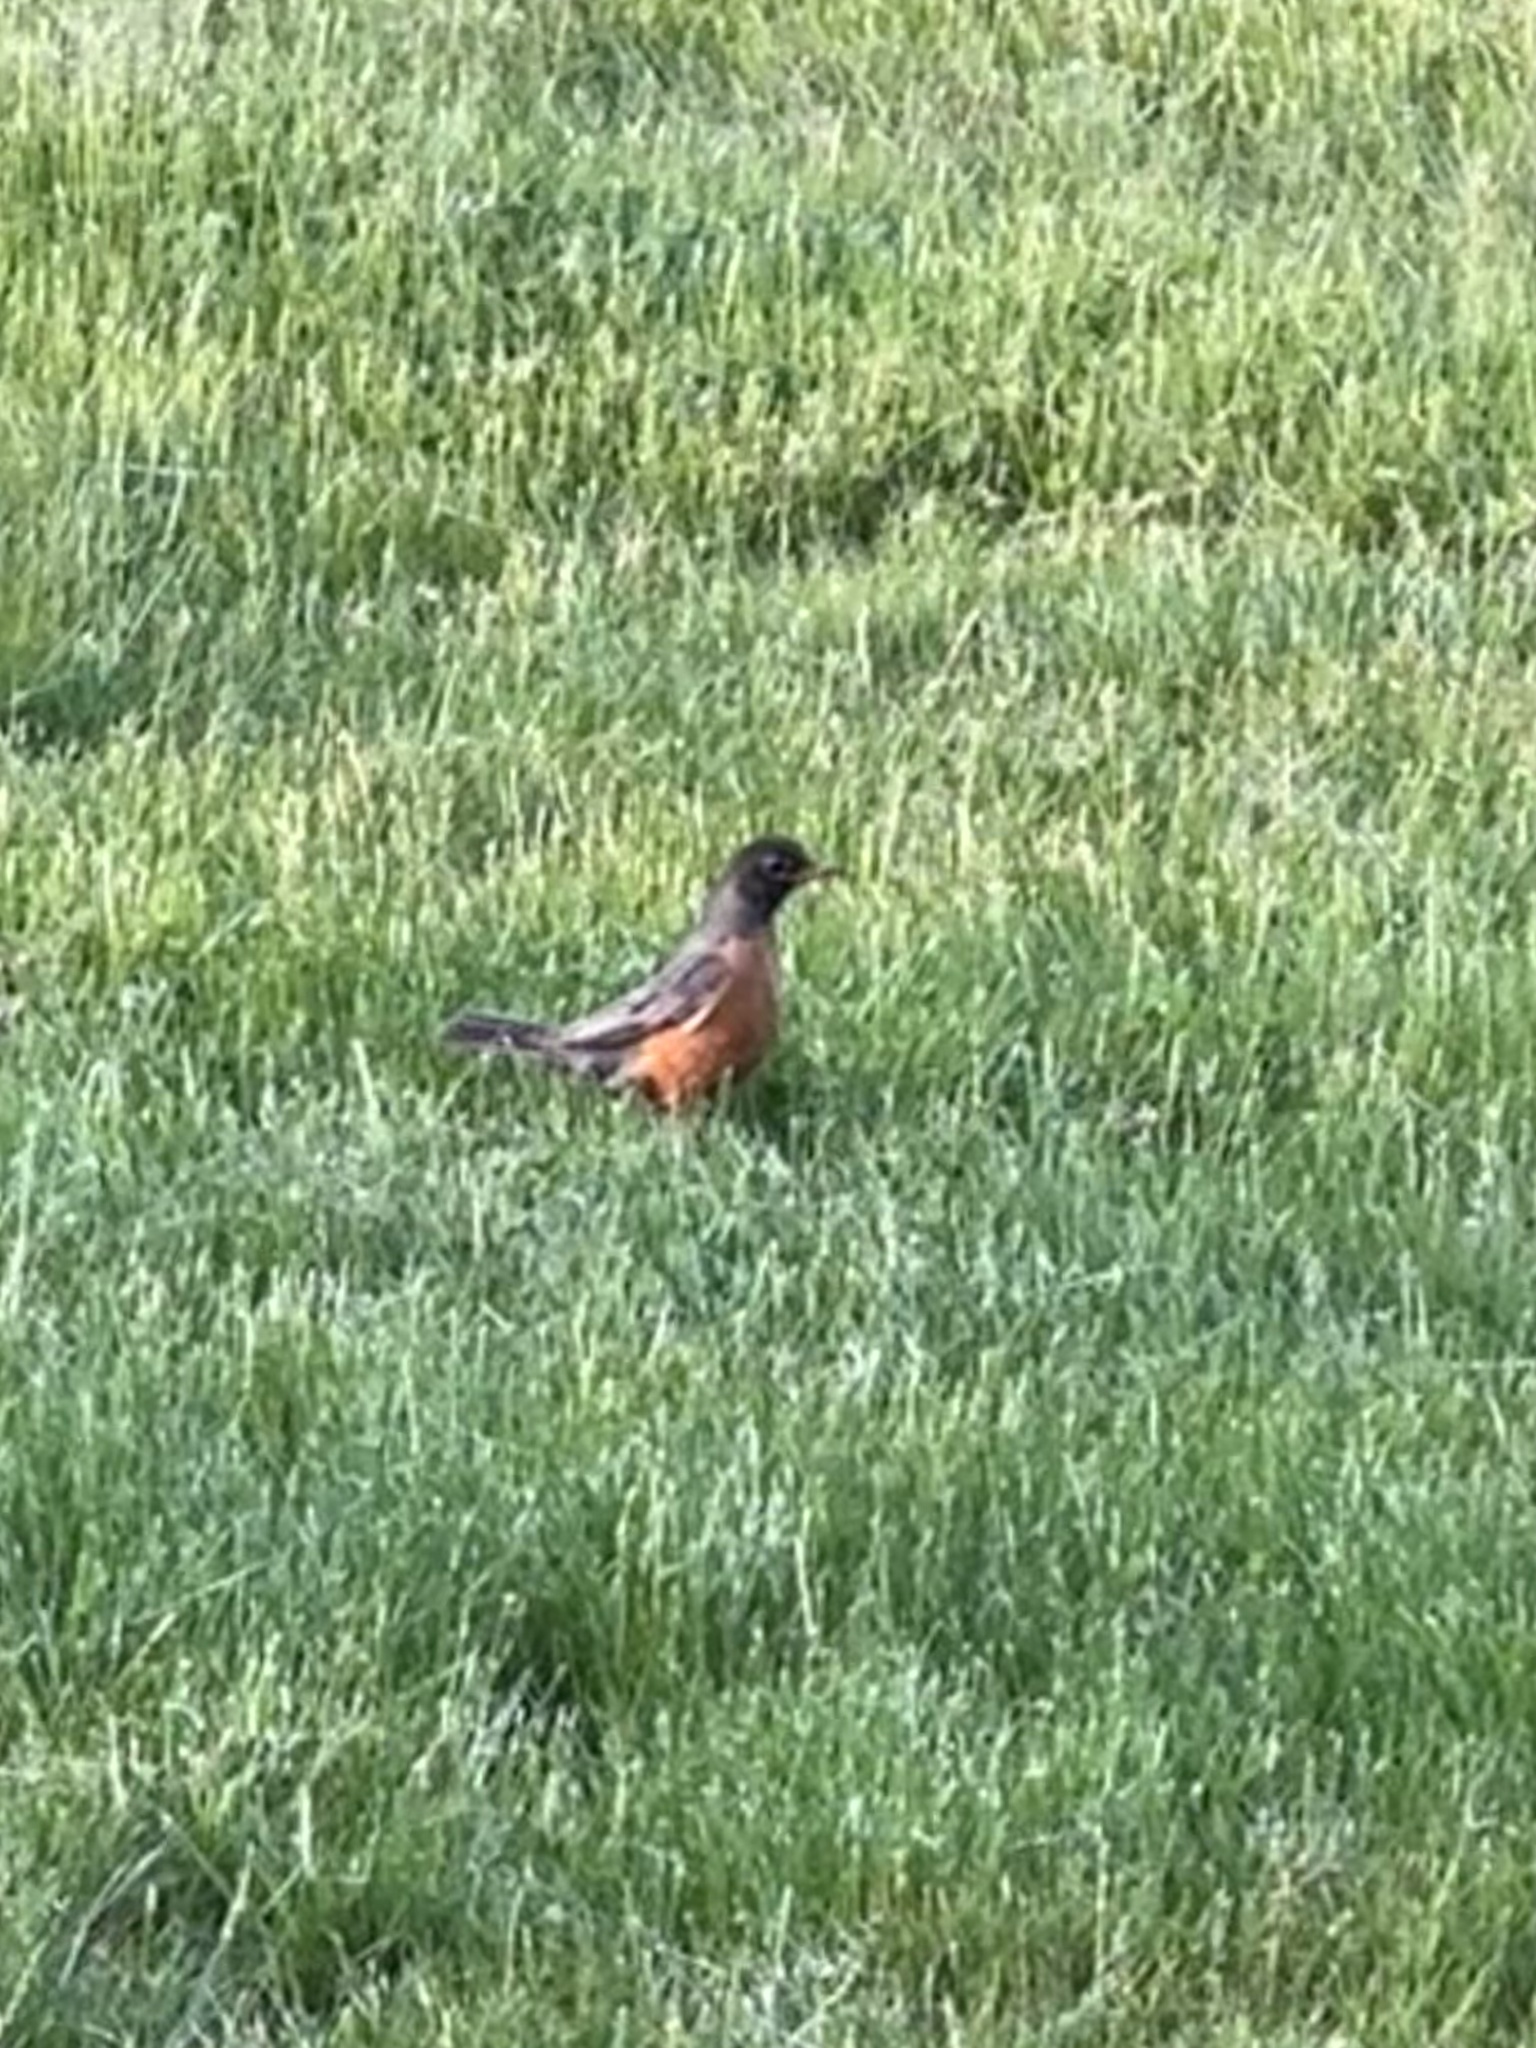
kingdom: Animalia
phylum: Chordata
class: Aves
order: Passeriformes
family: Turdidae
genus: Turdus
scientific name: Turdus migratorius
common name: American robin
